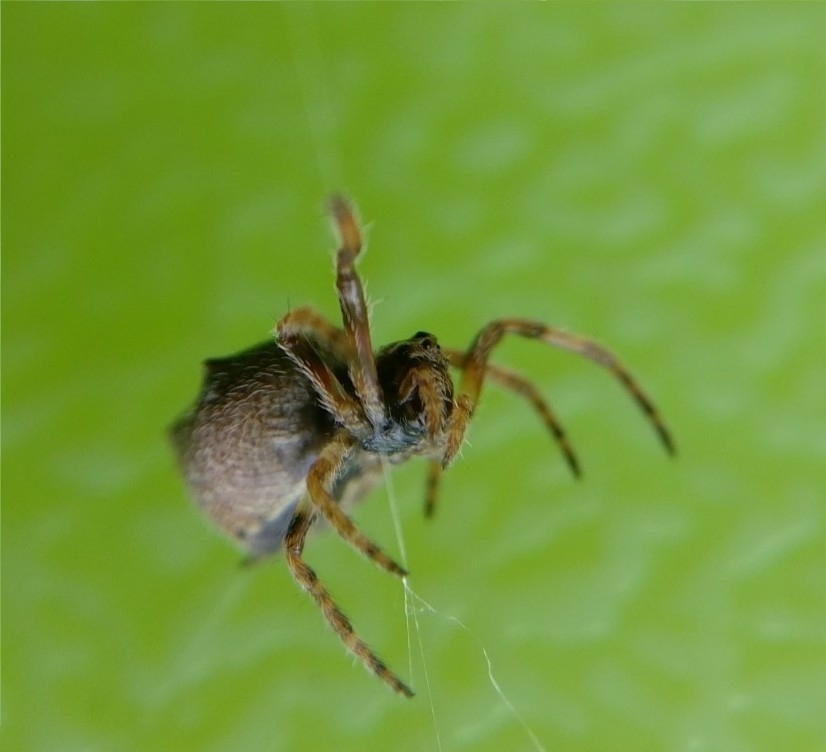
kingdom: Animalia
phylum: Arthropoda
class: Arachnida
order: Araneae
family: Araneidae
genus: Eriophora
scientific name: Eriophora pustulosa
